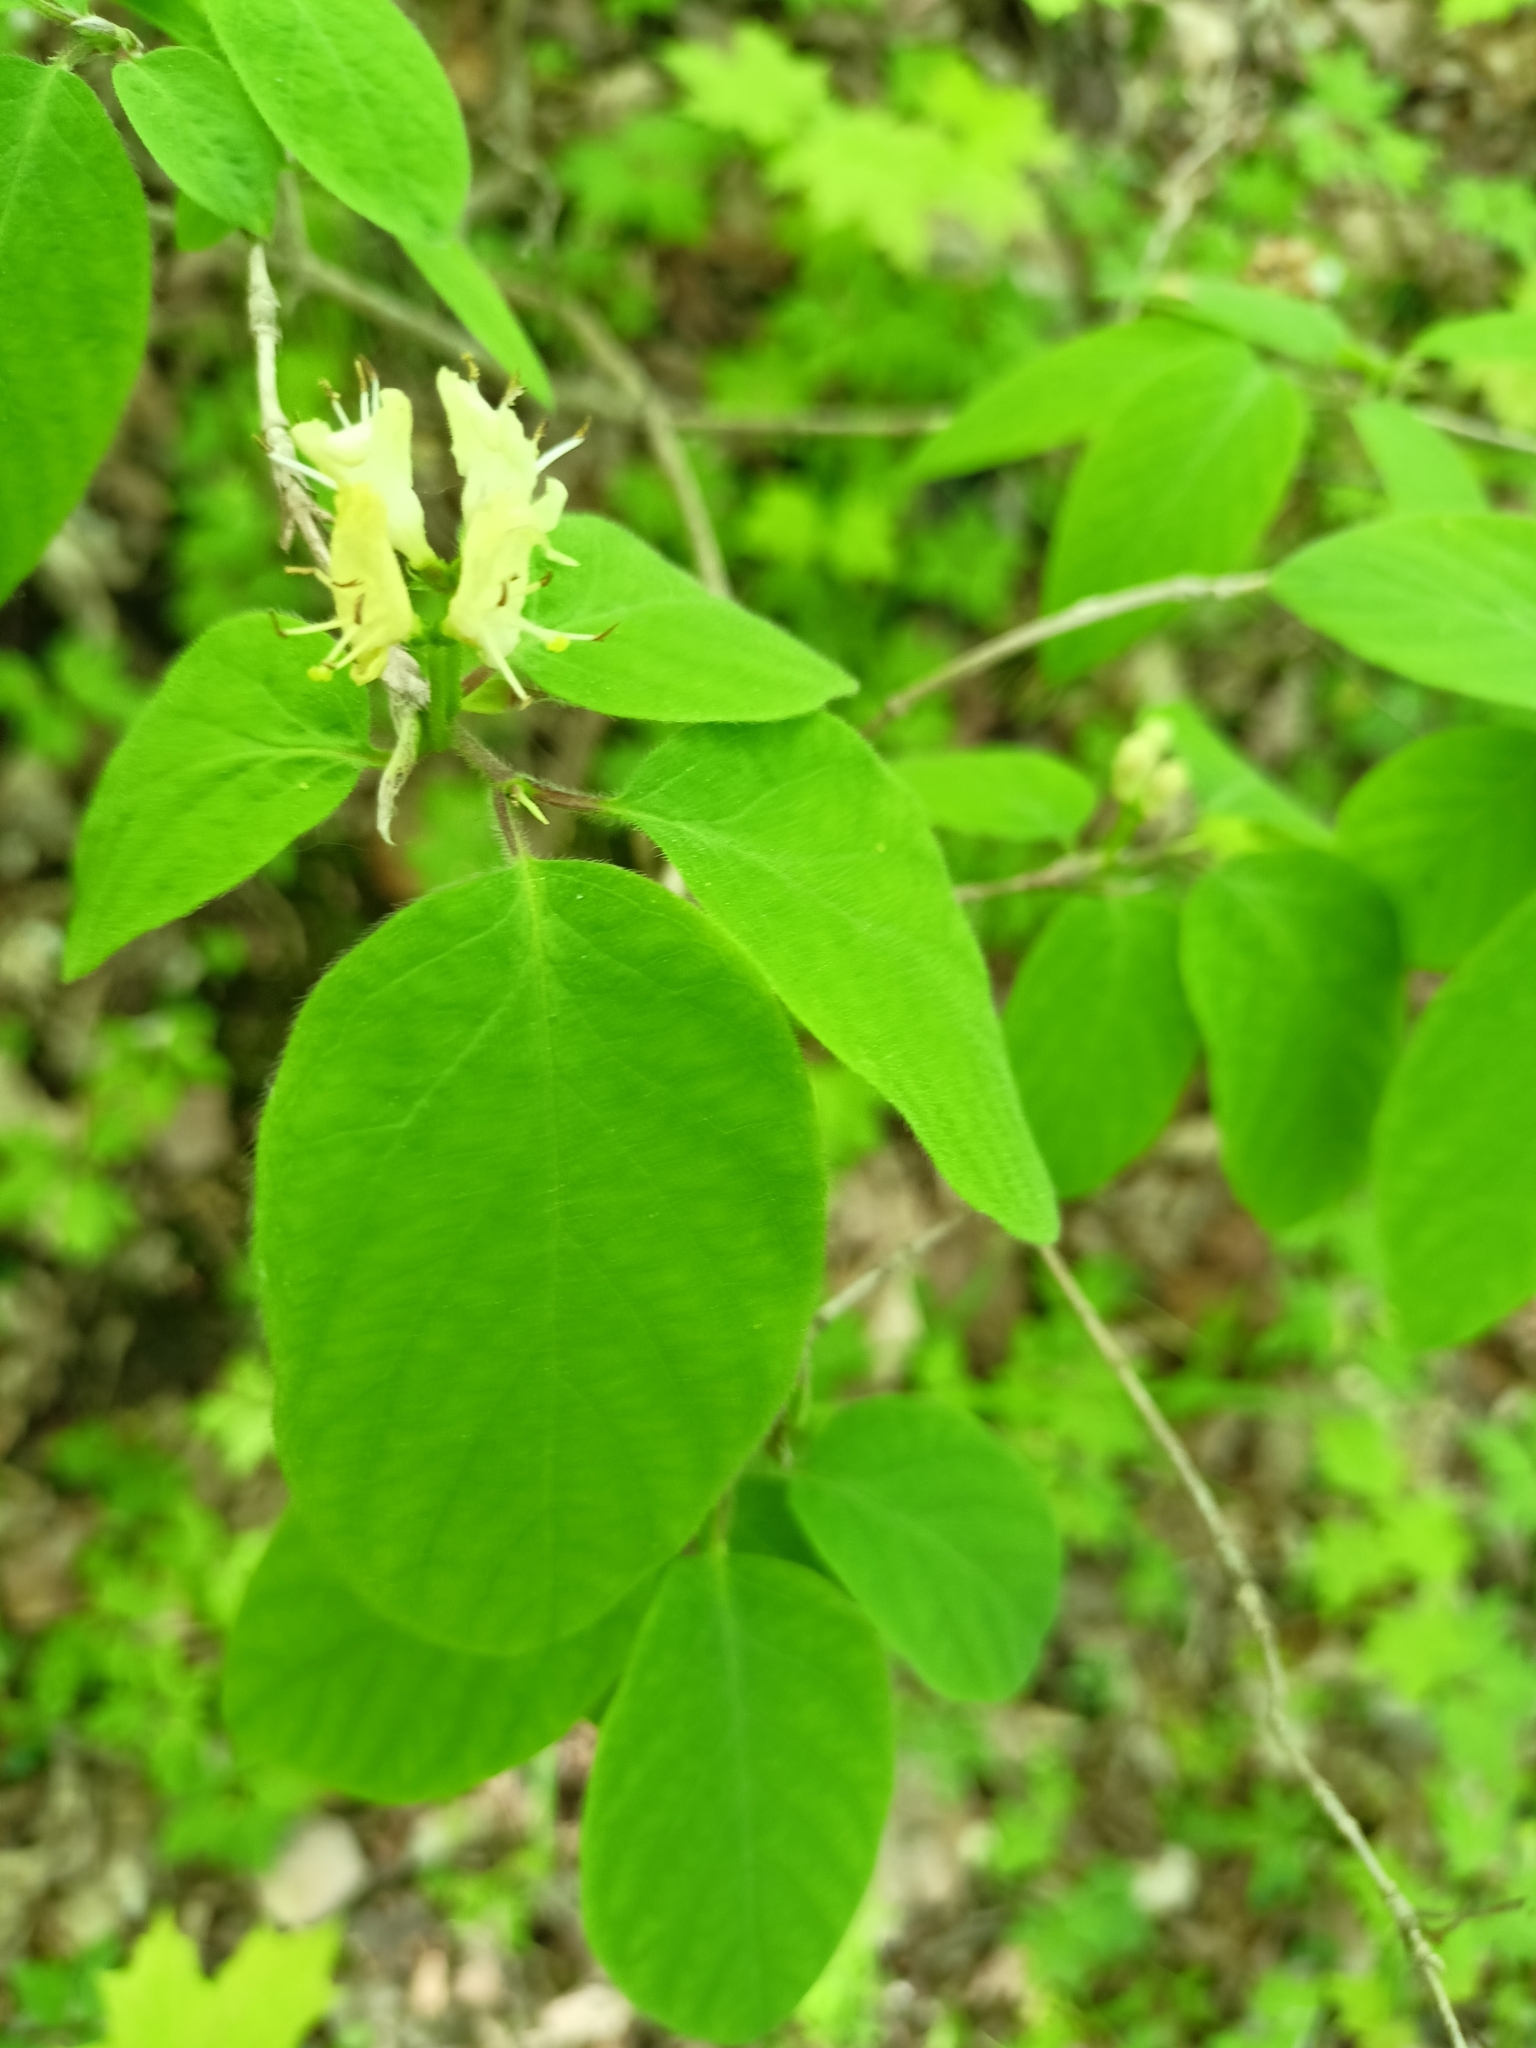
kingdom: Plantae
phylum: Tracheophyta
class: Magnoliopsida
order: Dipsacales
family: Caprifoliaceae
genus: Lonicera
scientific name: Lonicera xylosteum
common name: Fly honeysuckle
